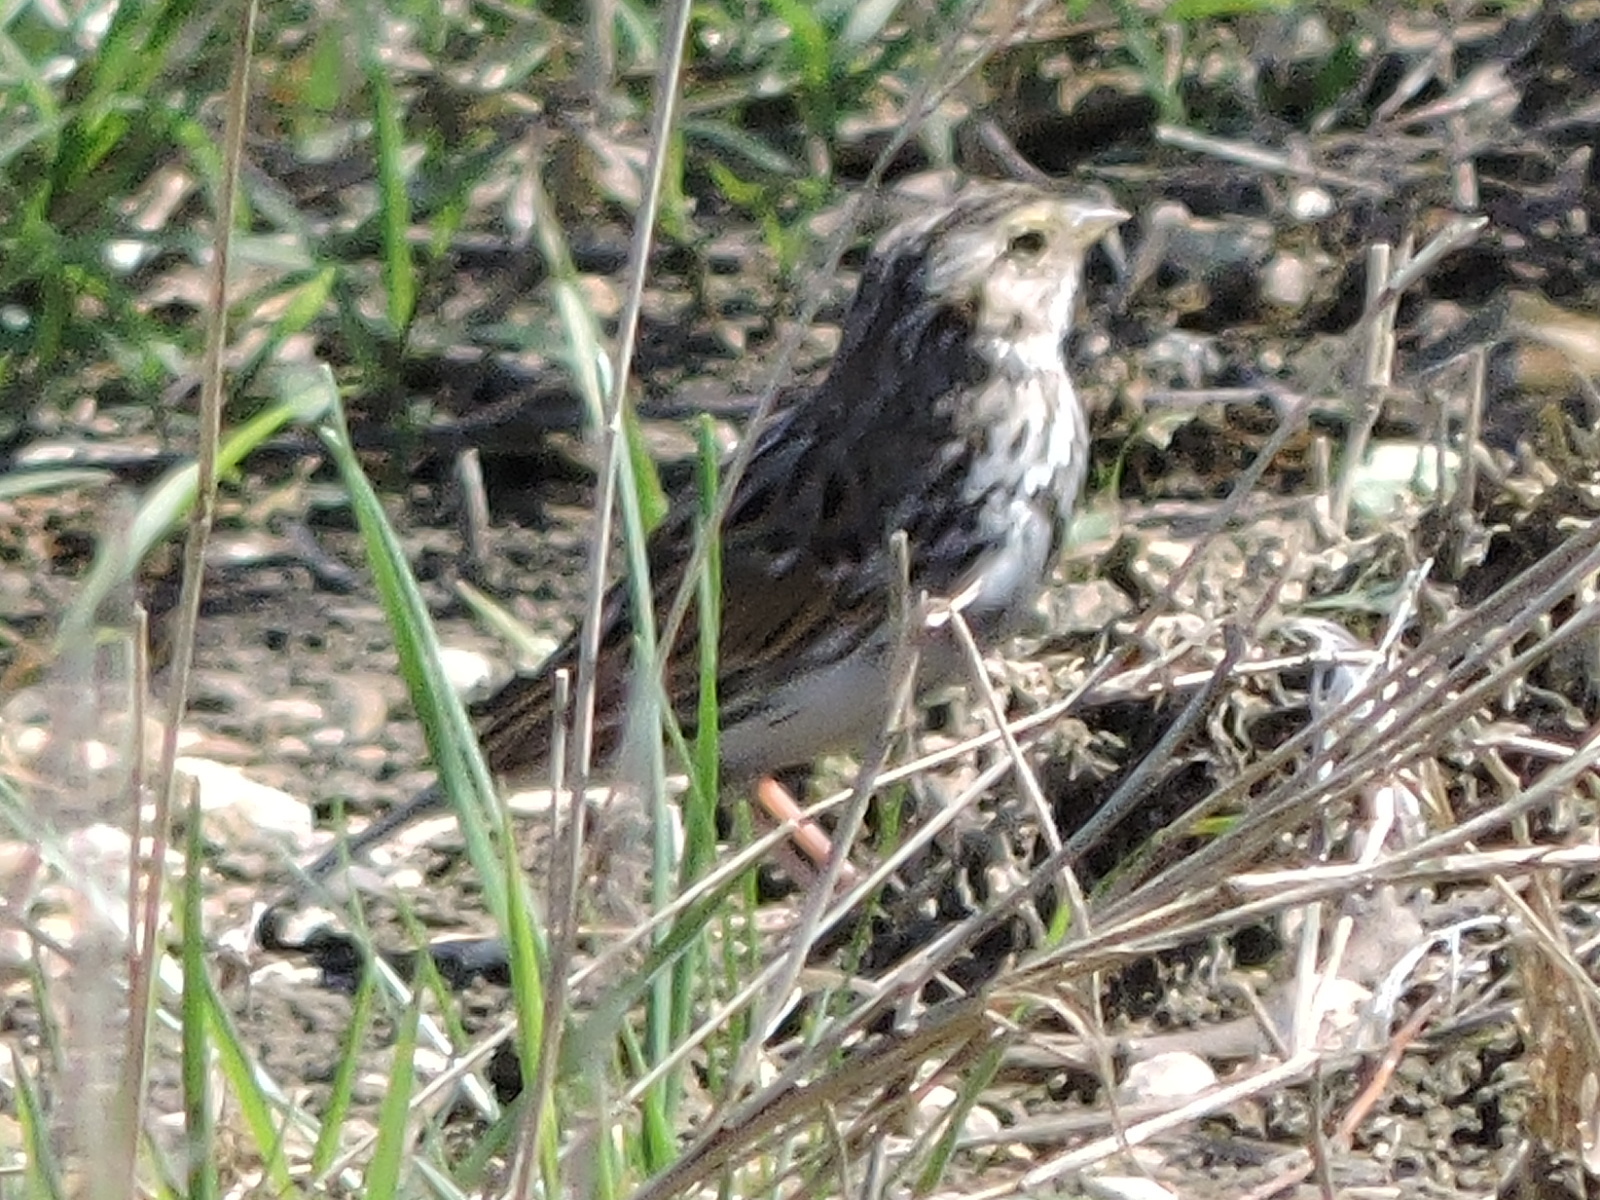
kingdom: Animalia
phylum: Chordata
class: Aves
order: Passeriformes
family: Passerellidae
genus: Passerculus
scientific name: Passerculus sandwichensis
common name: Savannah sparrow
